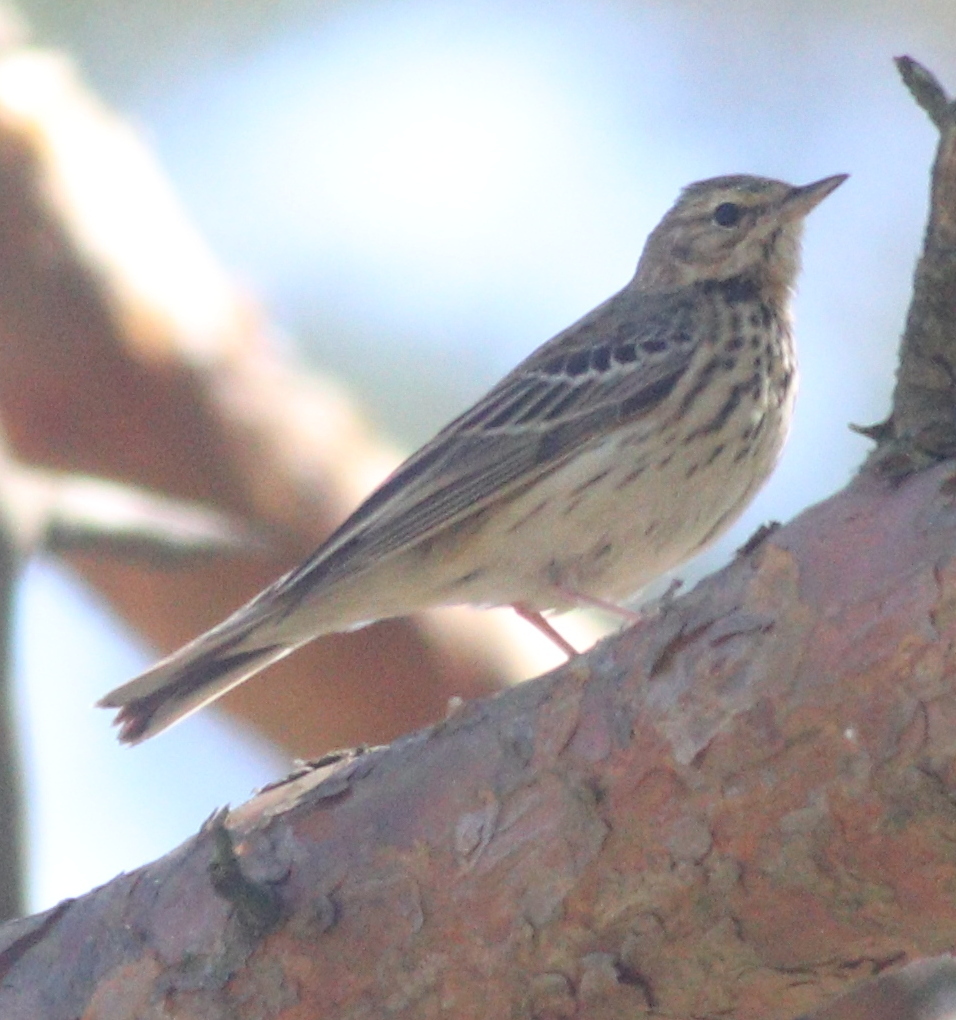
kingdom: Animalia
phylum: Chordata
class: Aves
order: Passeriformes
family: Motacillidae
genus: Anthus
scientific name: Anthus trivialis
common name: Tree pipit
